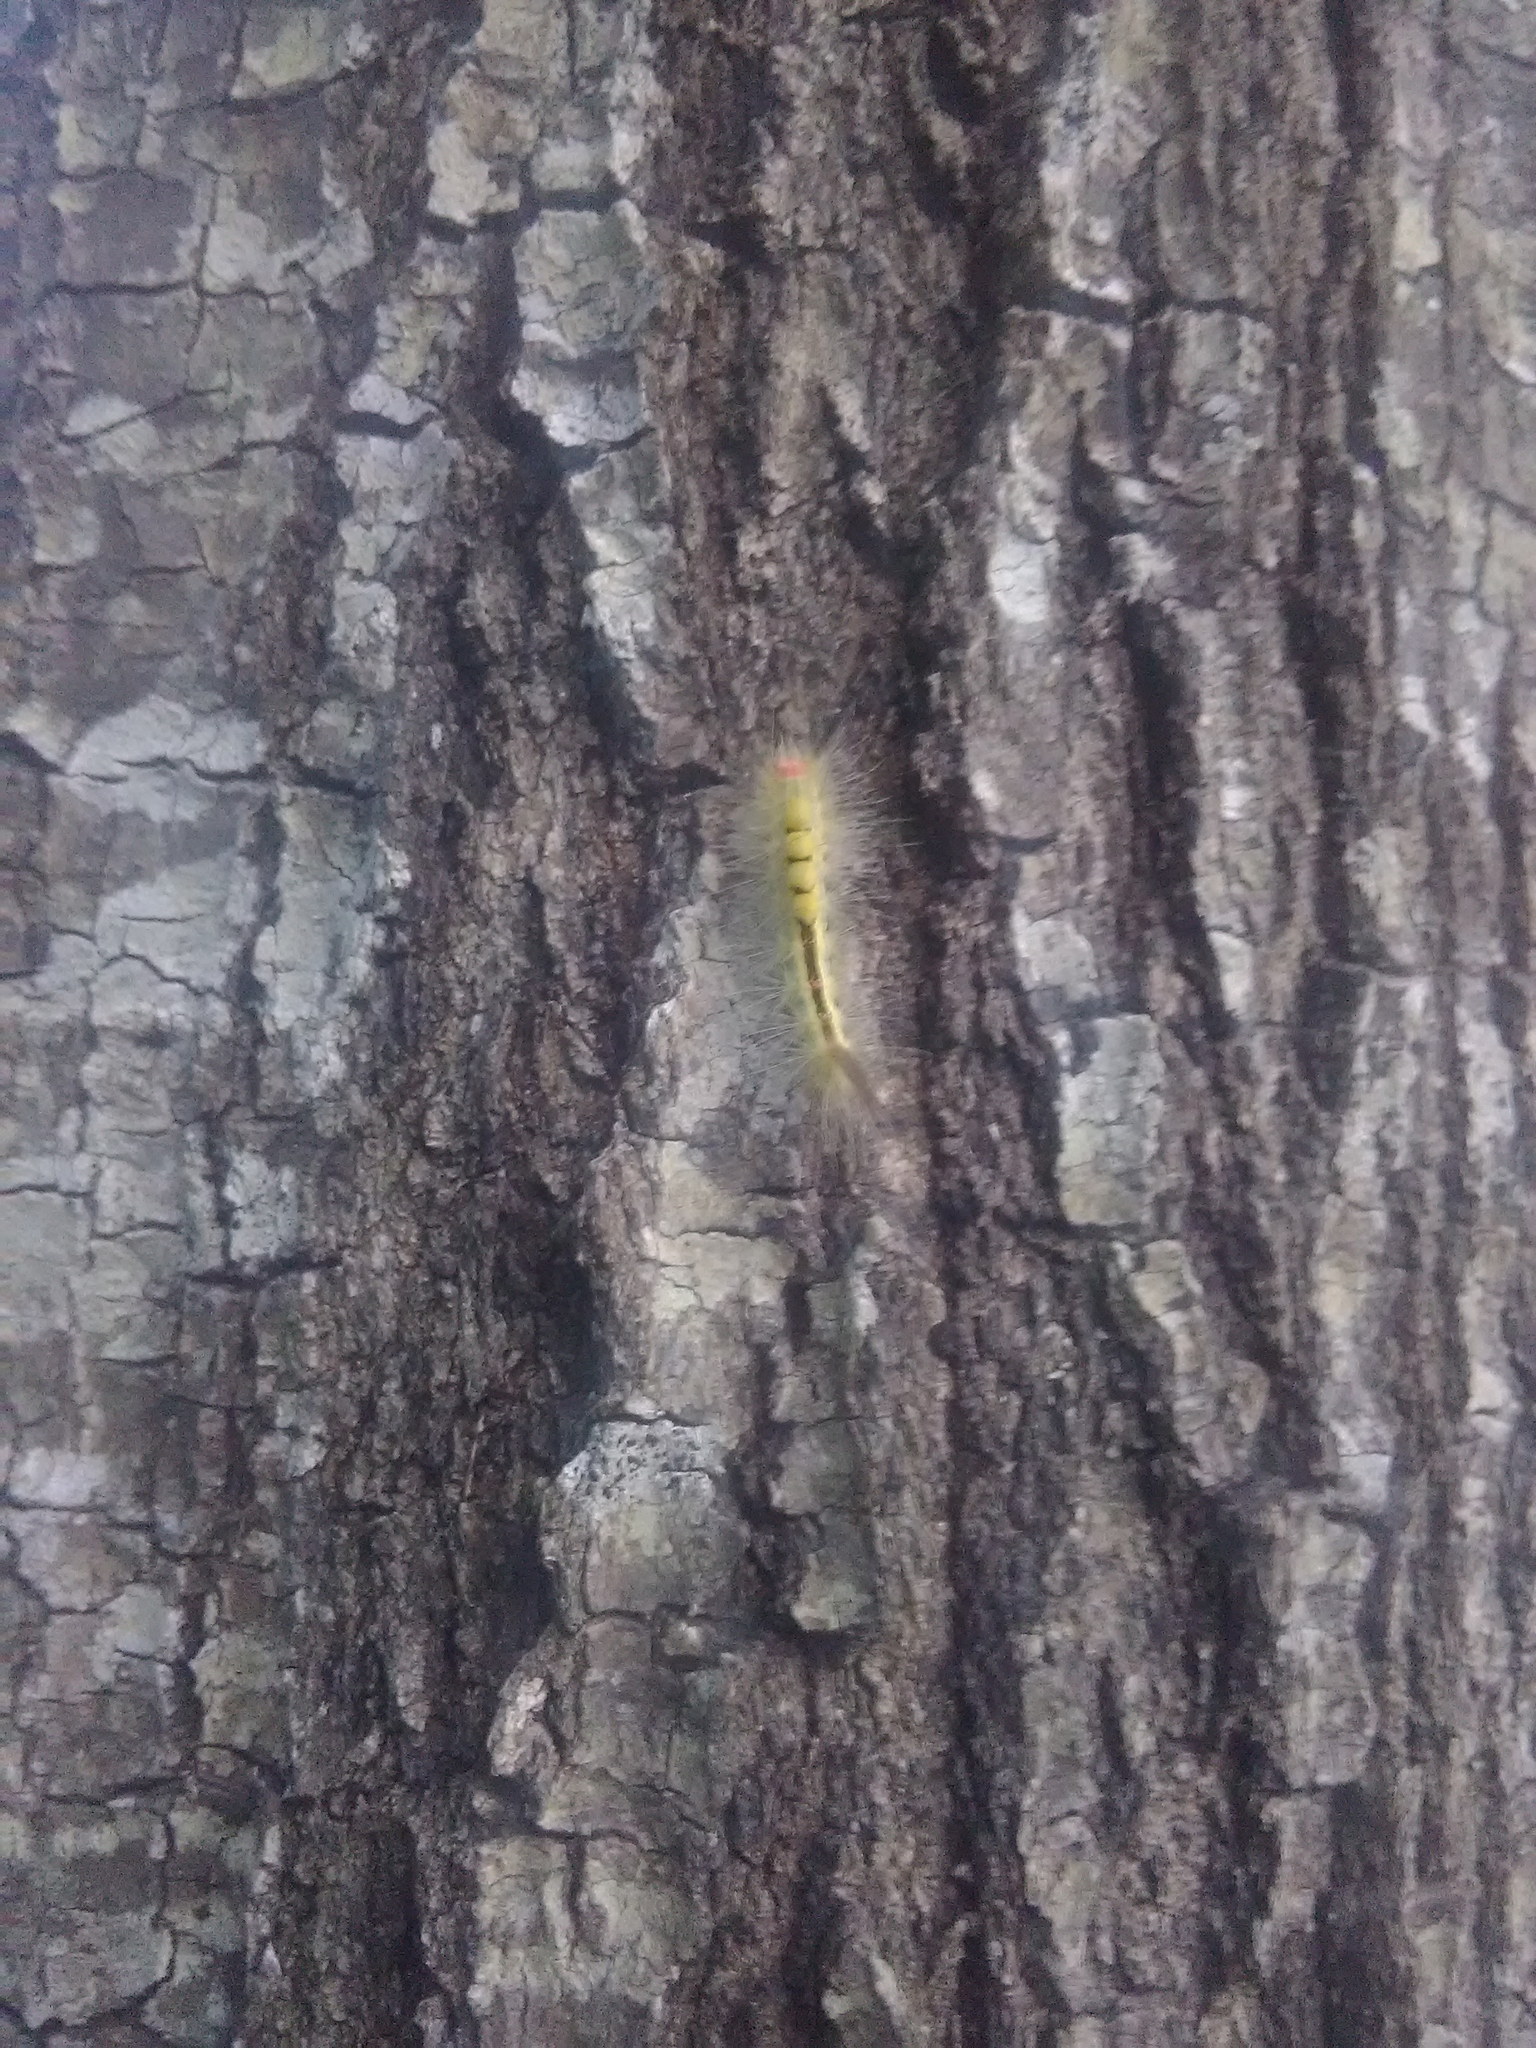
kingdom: Animalia
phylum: Arthropoda
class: Insecta
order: Lepidoptera
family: Erebidae
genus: Orgyia
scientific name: Orgyia leucostigma
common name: White-marked tussock moth
